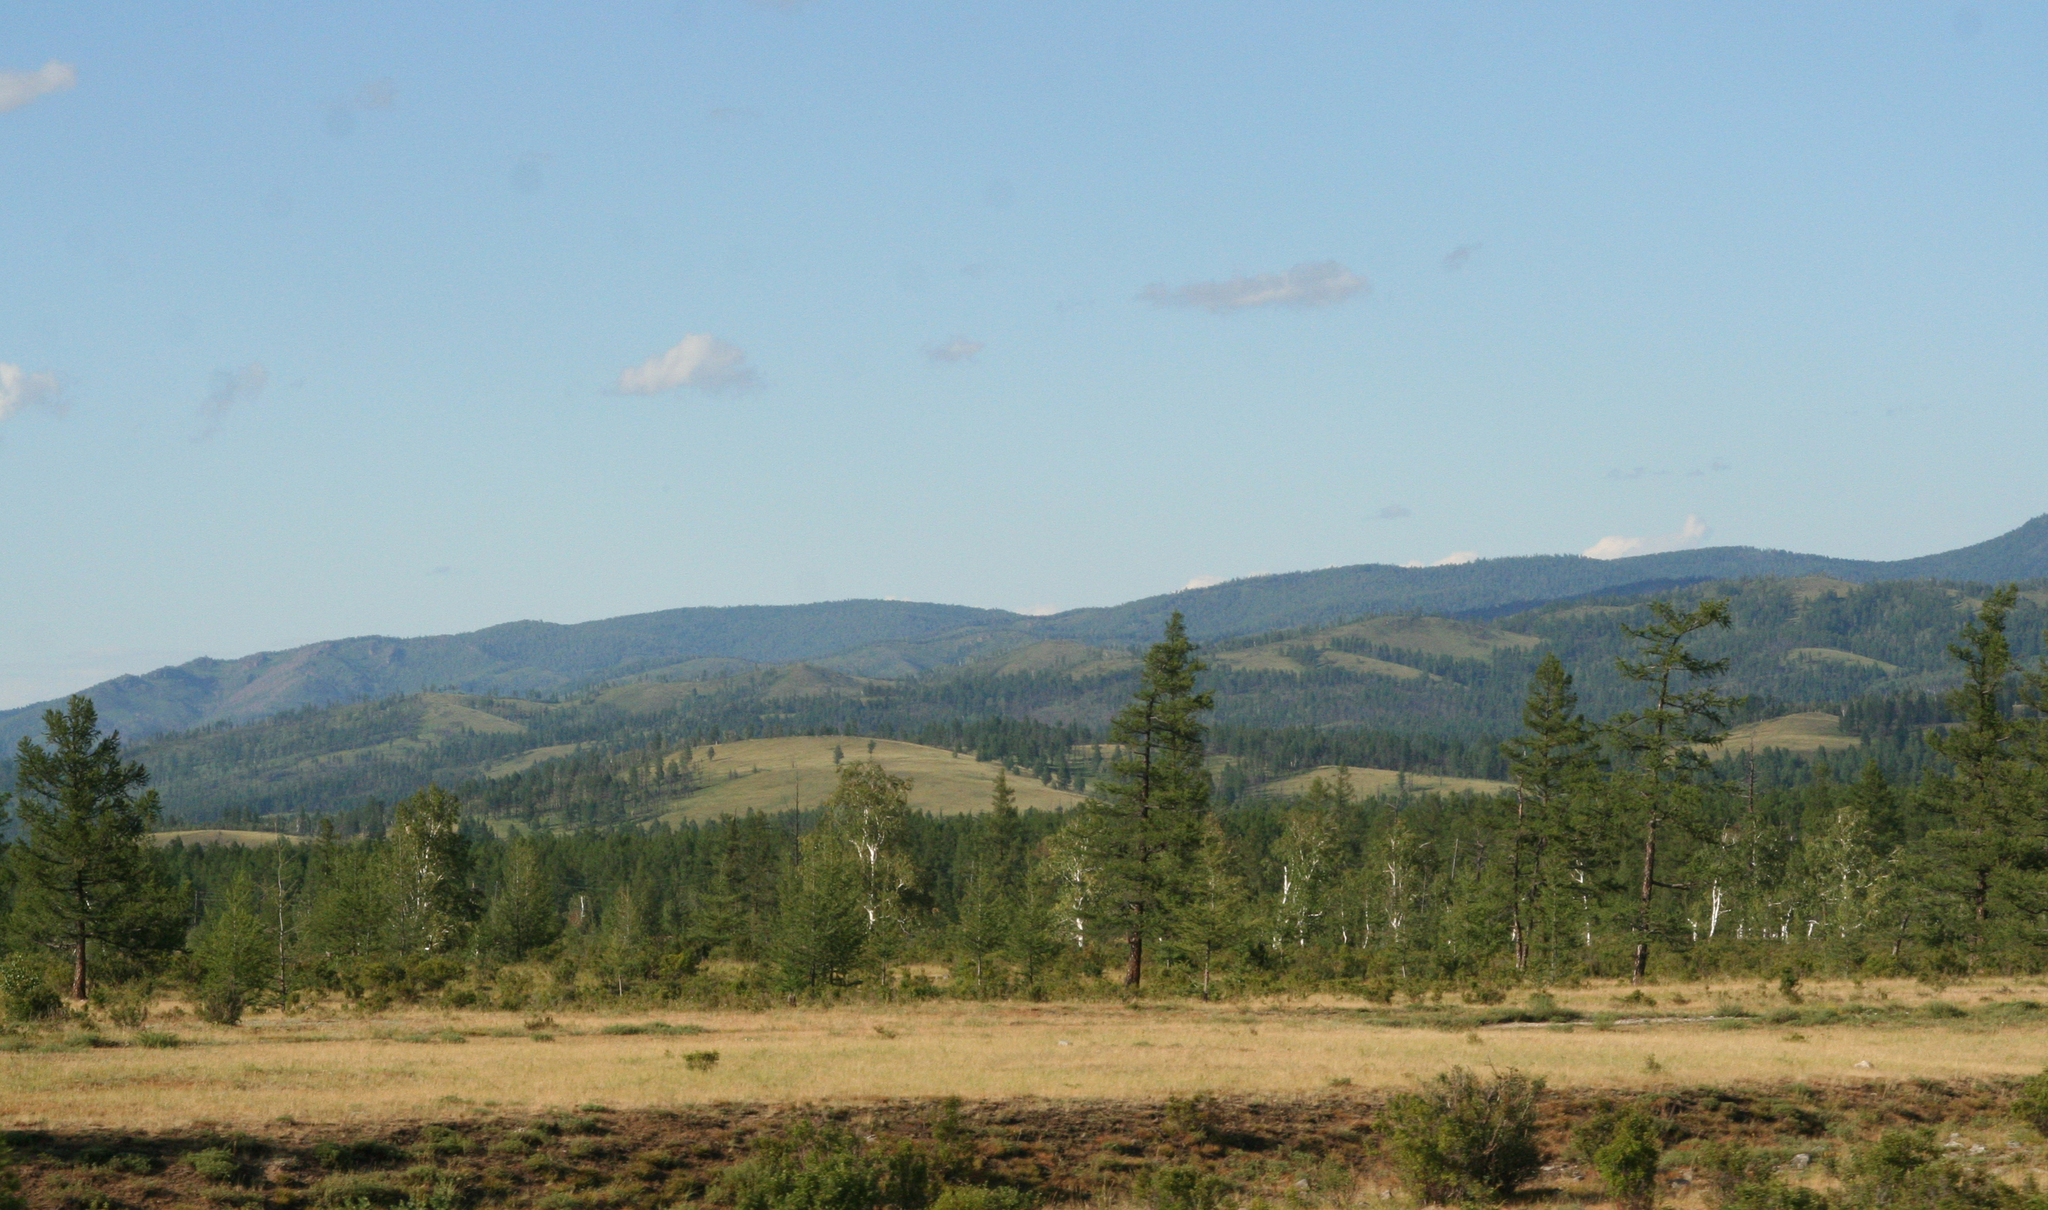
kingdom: Plantae
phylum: Tracheophyta
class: Pinopsida
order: Pinales
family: Pinaceae
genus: Larix
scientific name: Larix sibirica
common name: Siberian larch
